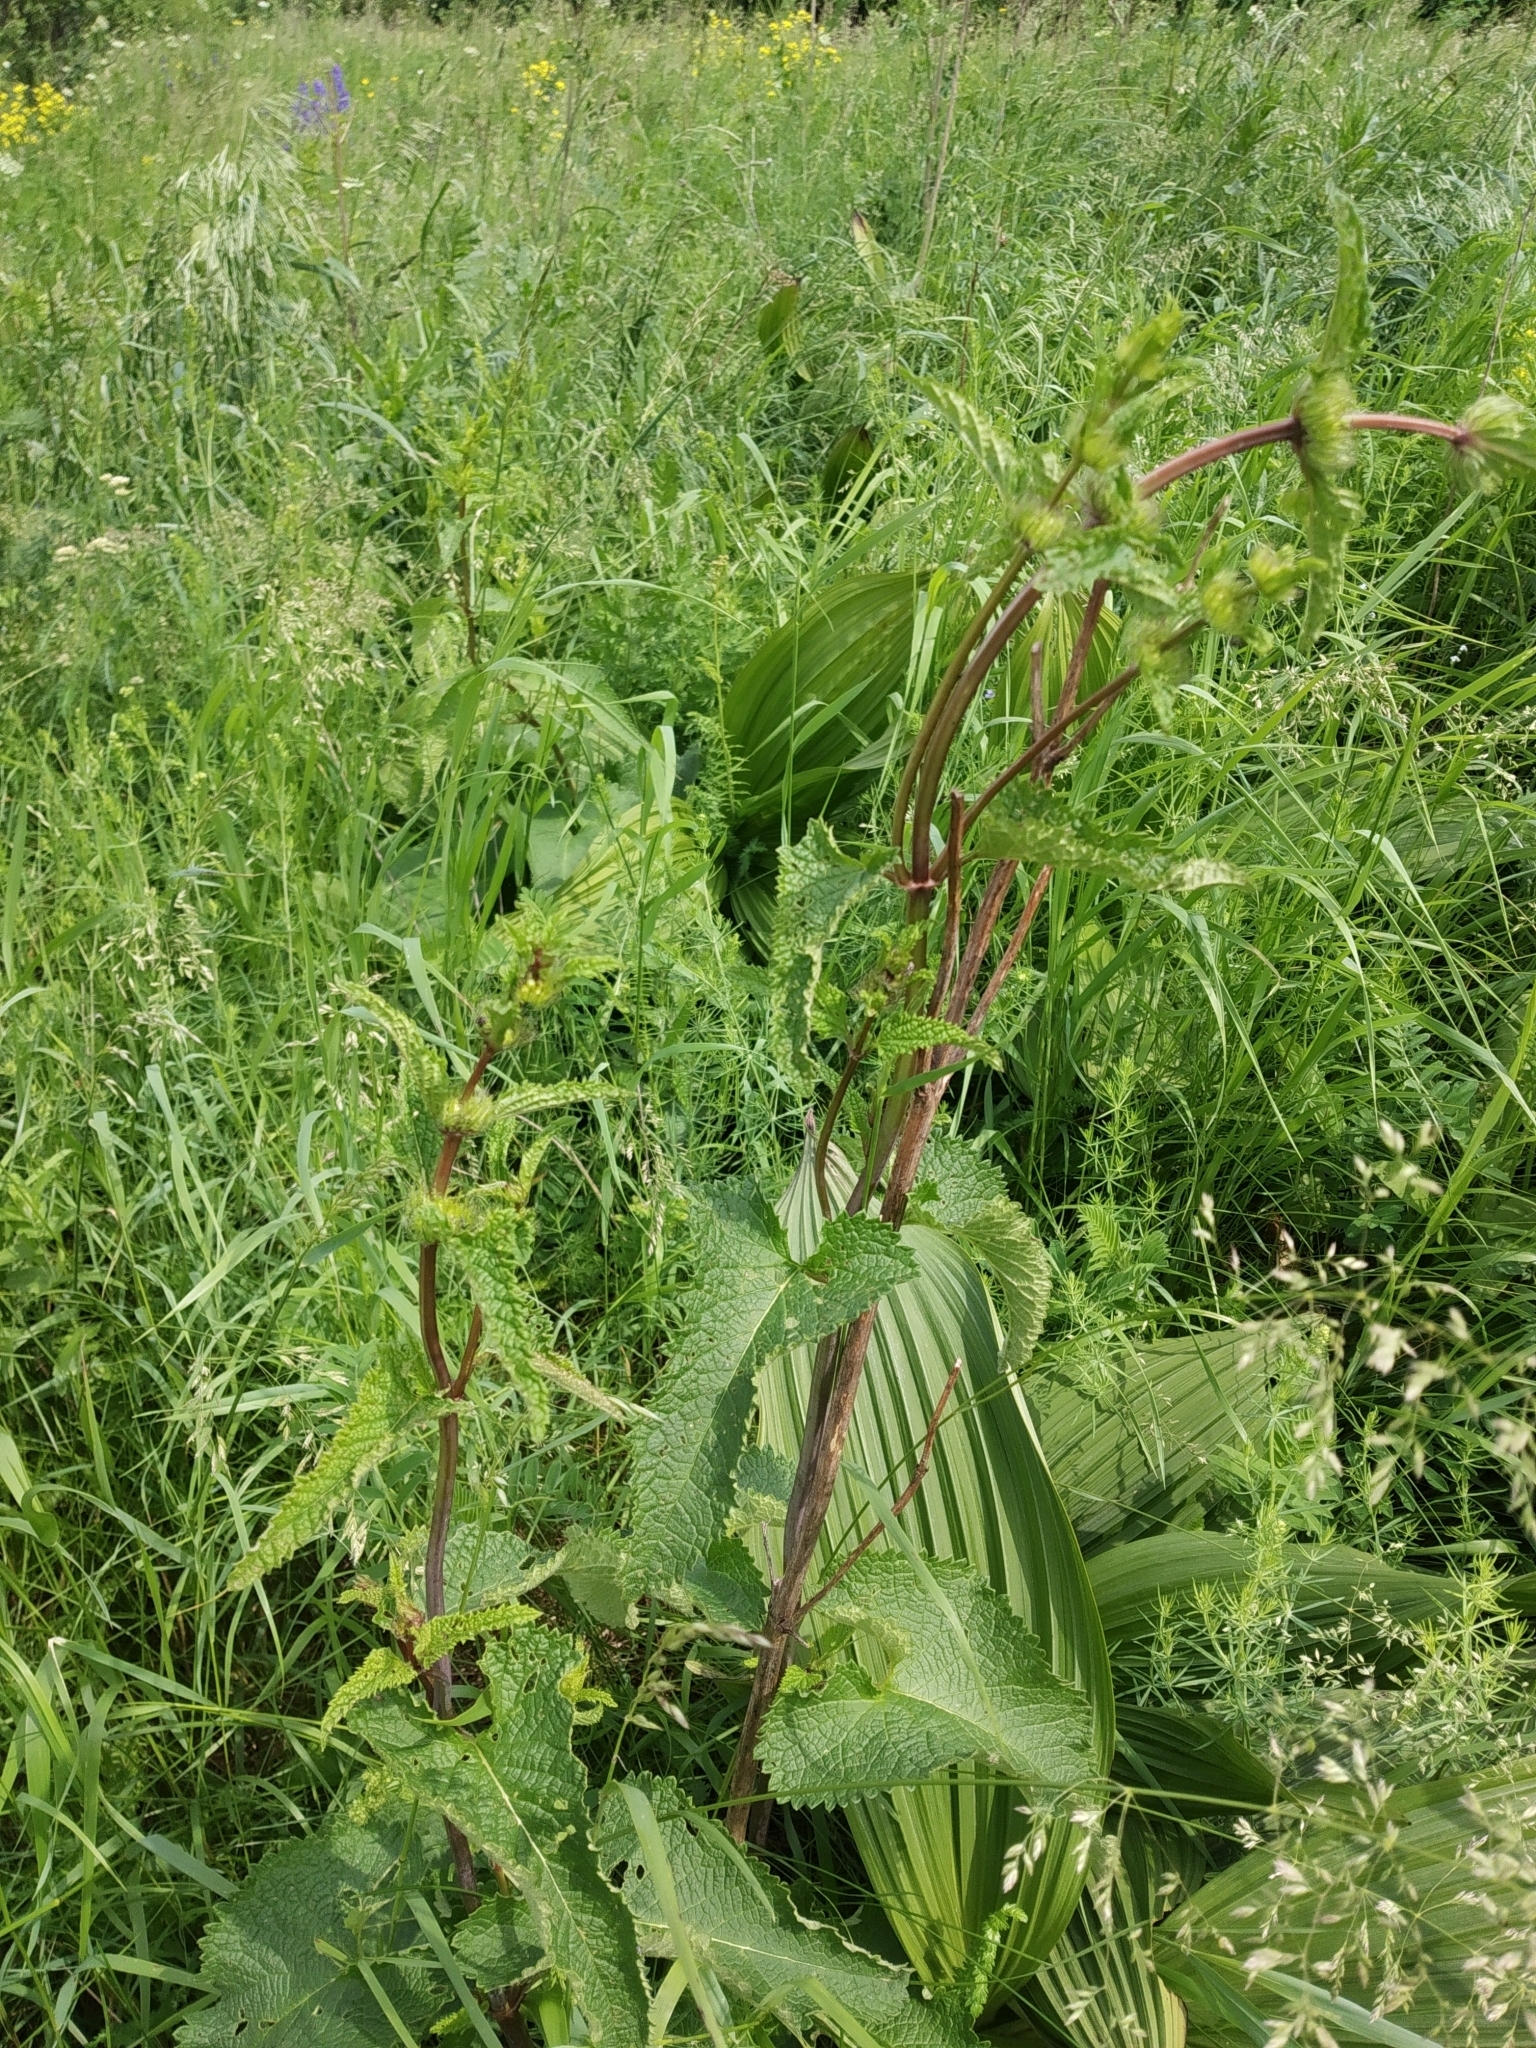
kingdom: Plantae
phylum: Tracheophyta
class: Magnoliopsida
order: Lamiales
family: Lamiaceae
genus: Phlomoides
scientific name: Phlomoides tuberosa
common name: Tuberous jerusalem sage
